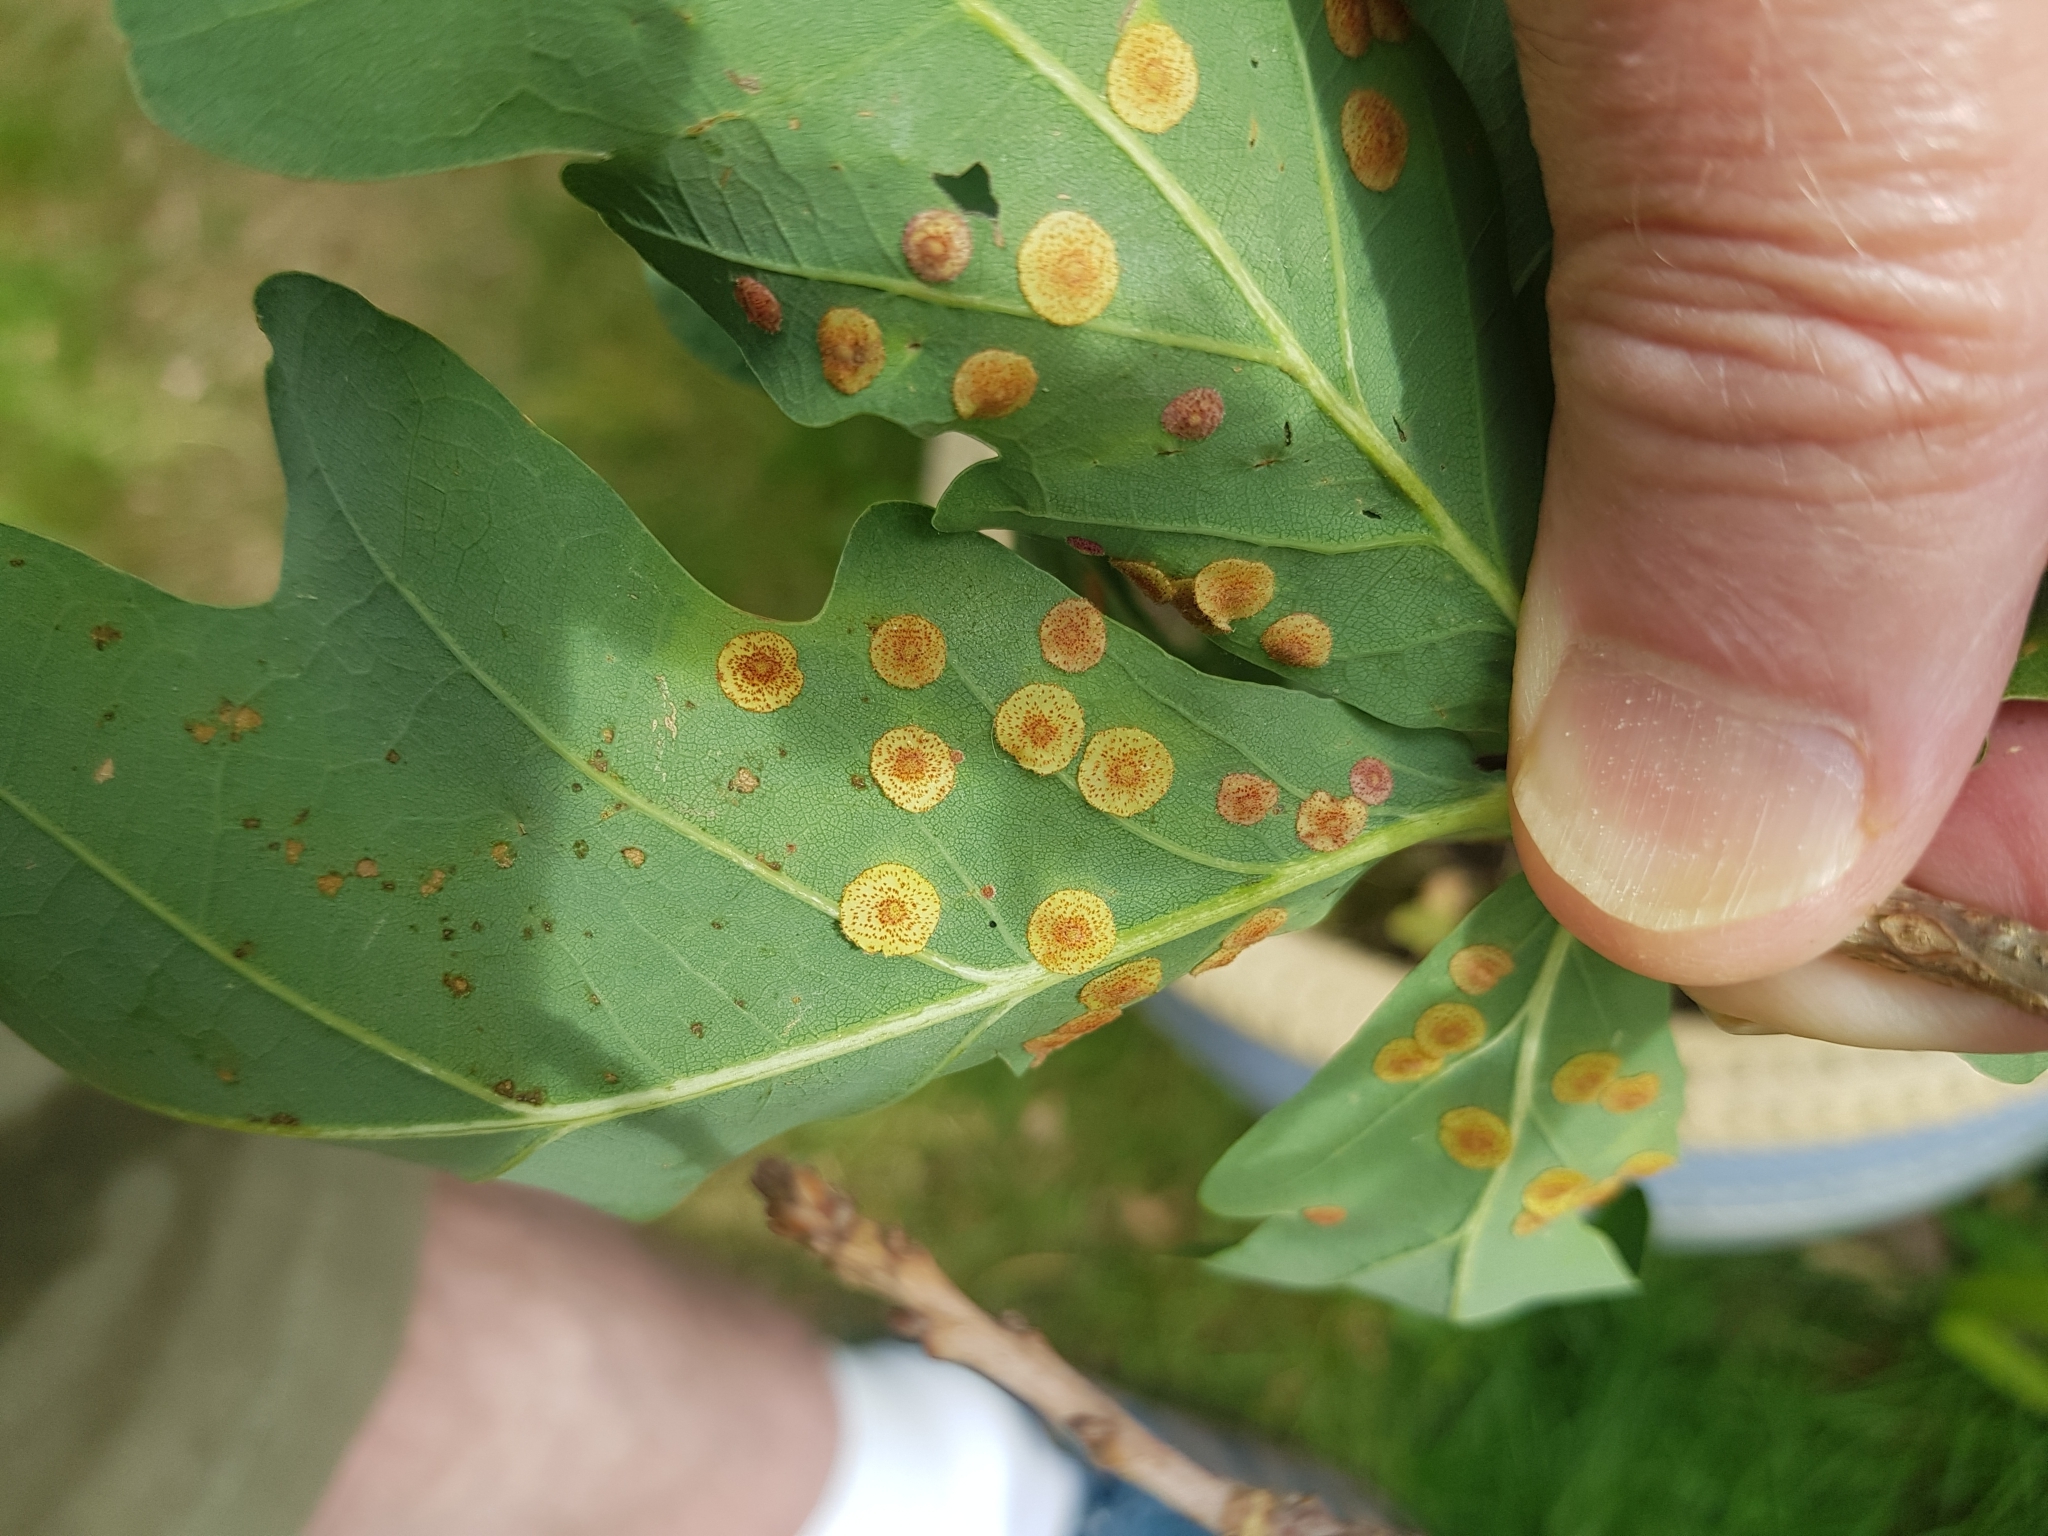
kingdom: Animalia
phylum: Arthropoda
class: Insecta
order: Hymenoptera
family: Cynipidae
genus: Neuroterus
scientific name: Neuroterus quercusbaccarum
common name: Common spangle gall
